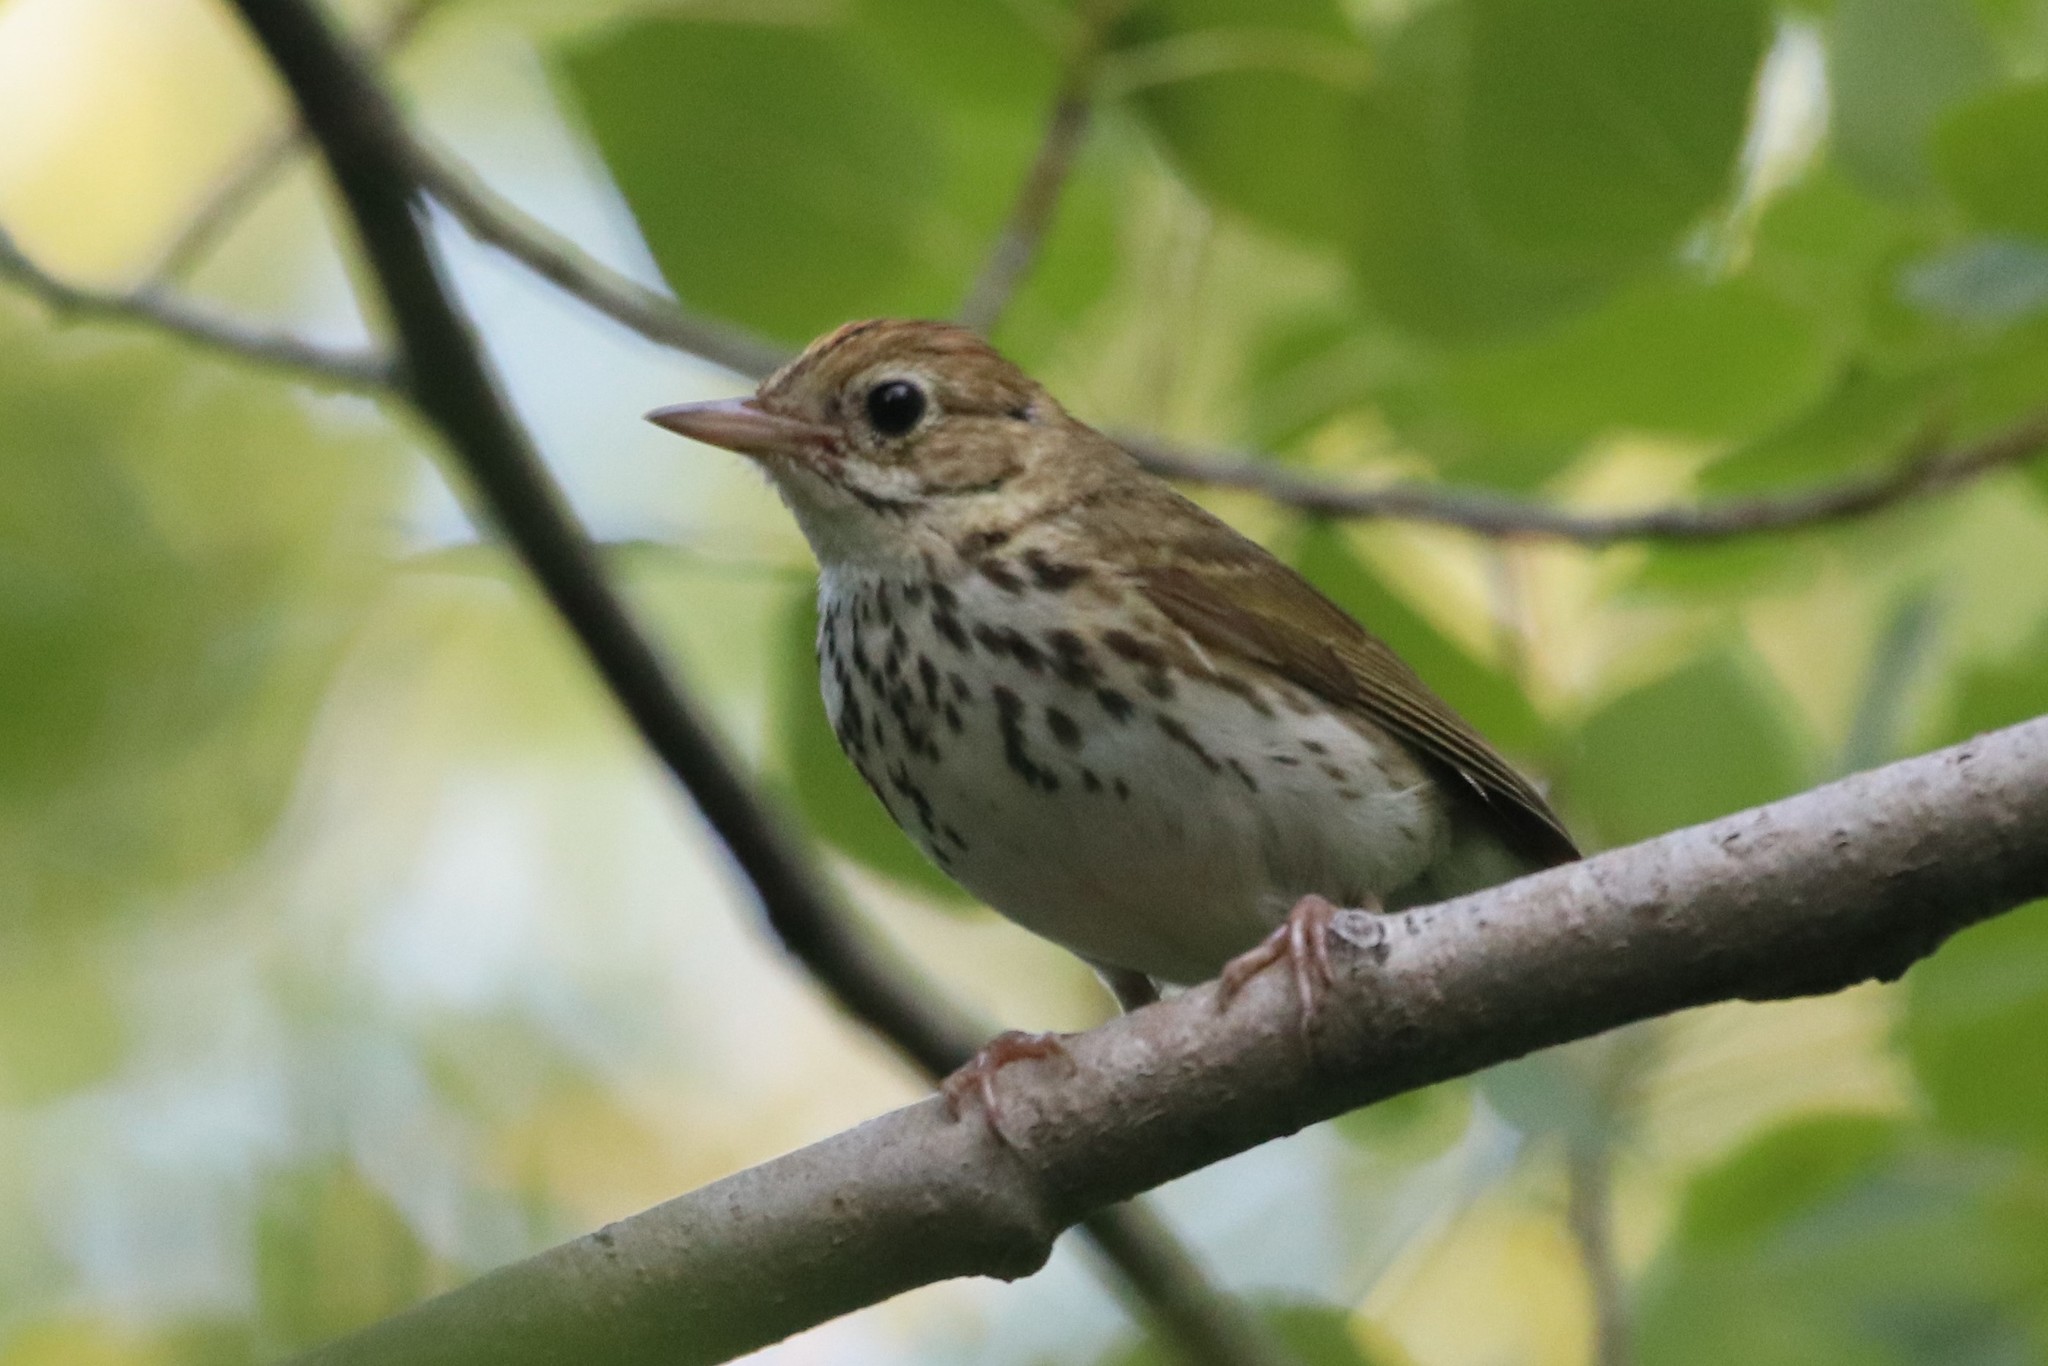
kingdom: Animalia
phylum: Chordata
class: Aves
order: Passeriformes
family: Parulidae
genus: Seiurus
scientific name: Seiurus aurocapilla
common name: Ovenbird
